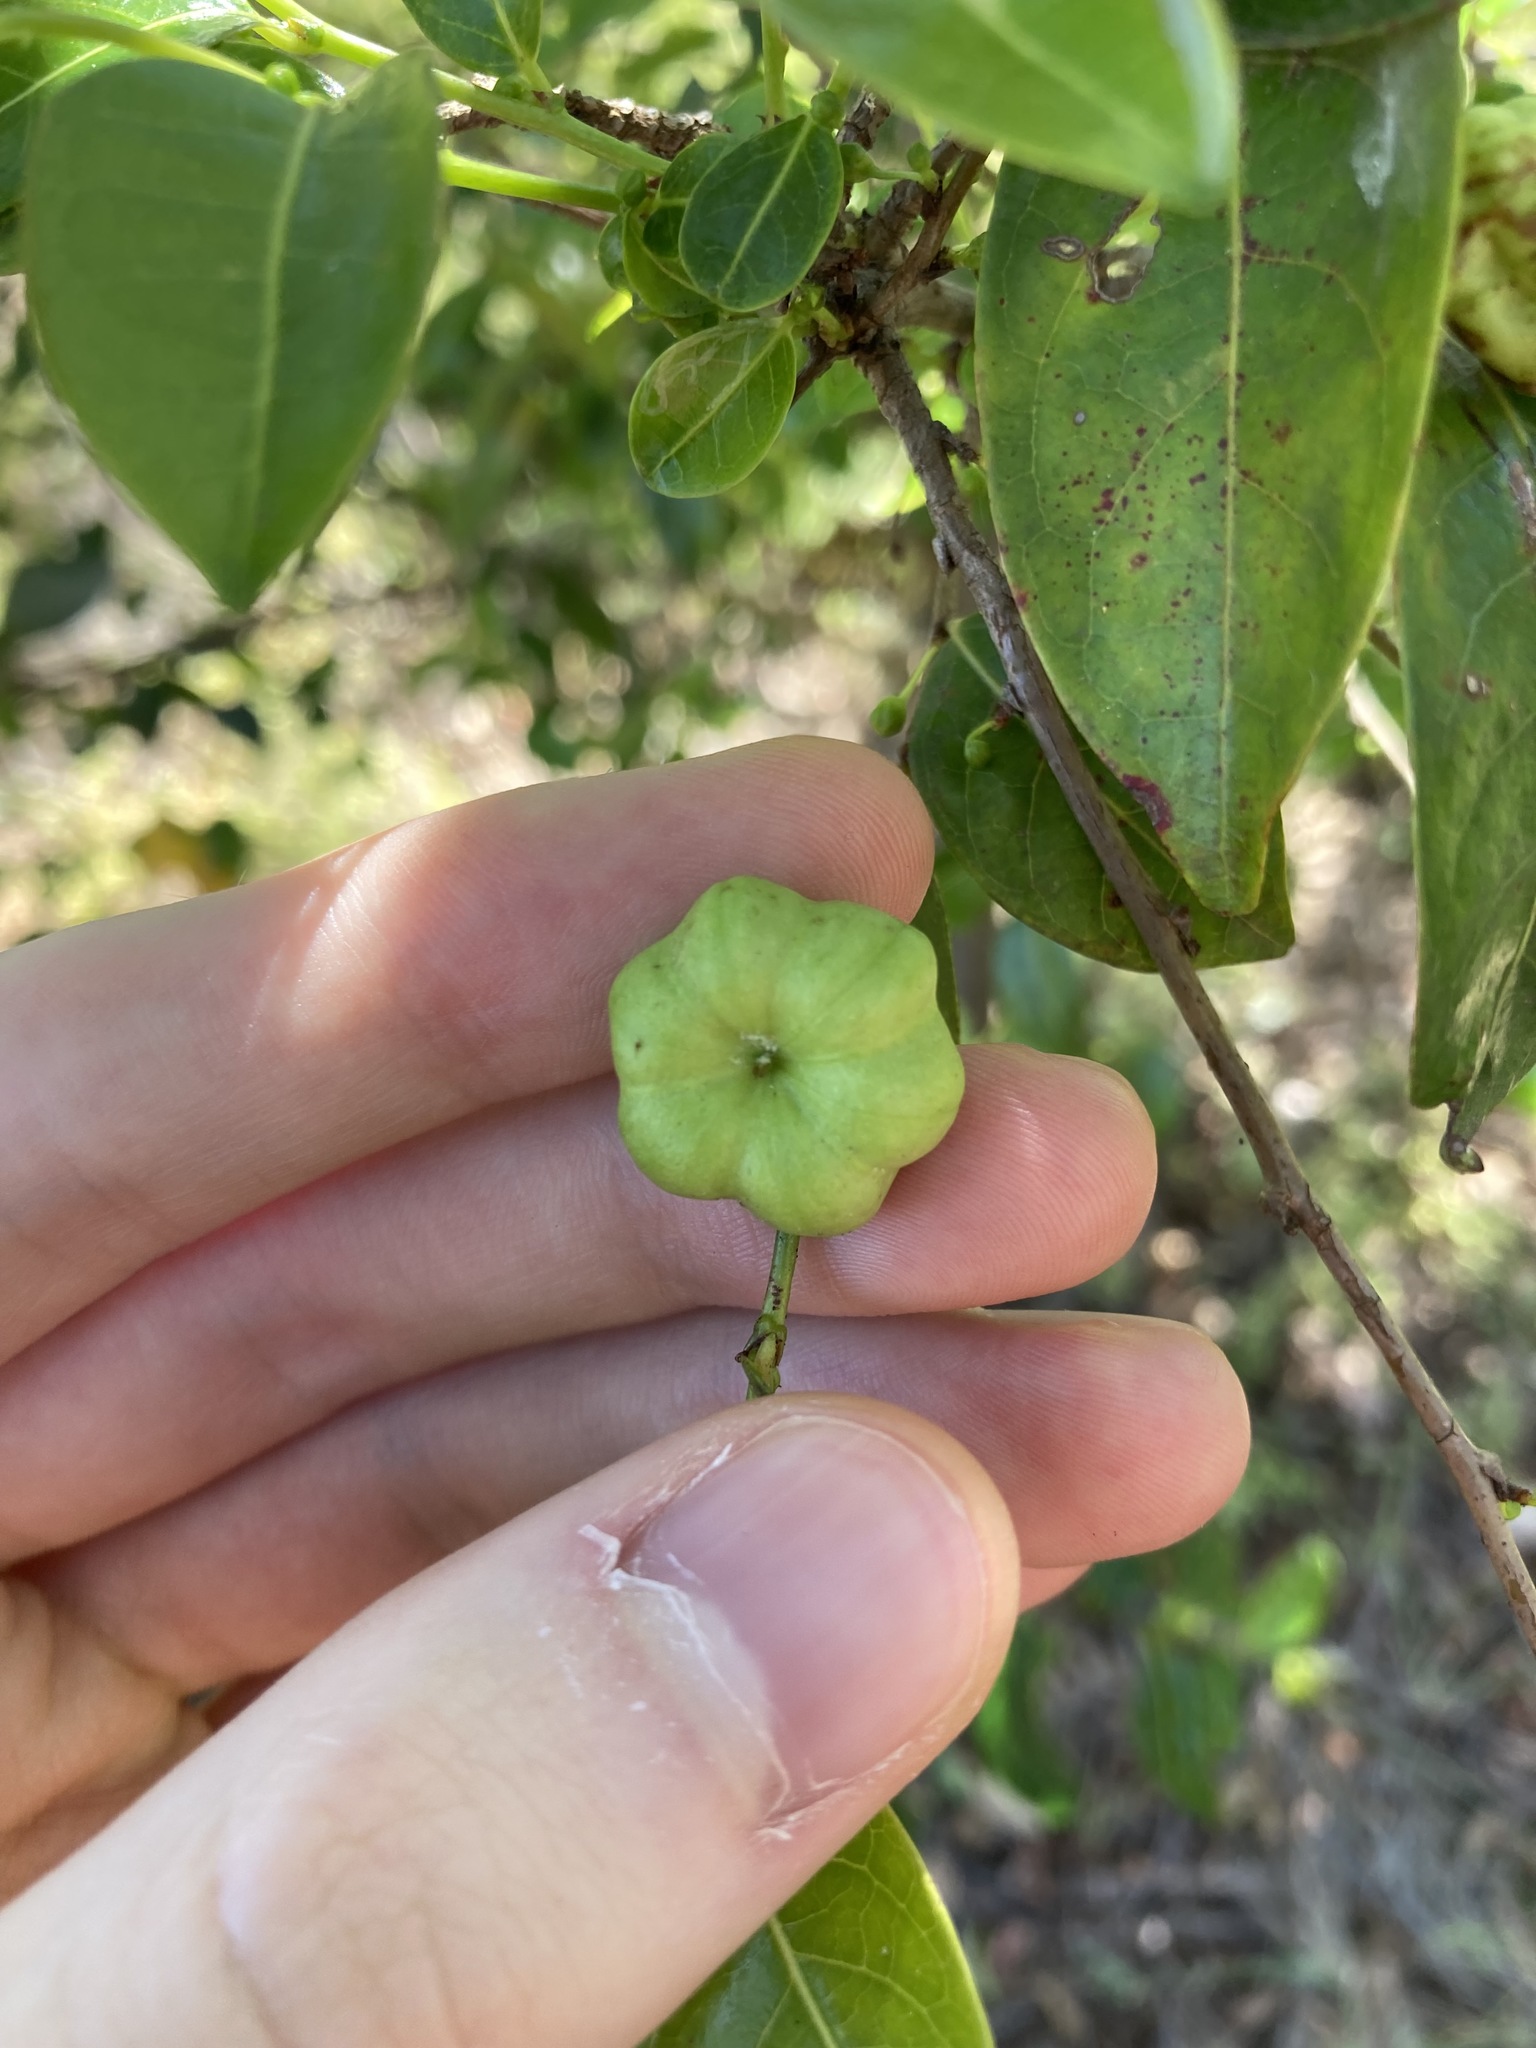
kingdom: Plantae
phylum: Tracheophyta
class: Magnoliopsida
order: Malpighiales
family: Phyllanthaceae
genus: Glochidion
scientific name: Glochidion ferdinandi
